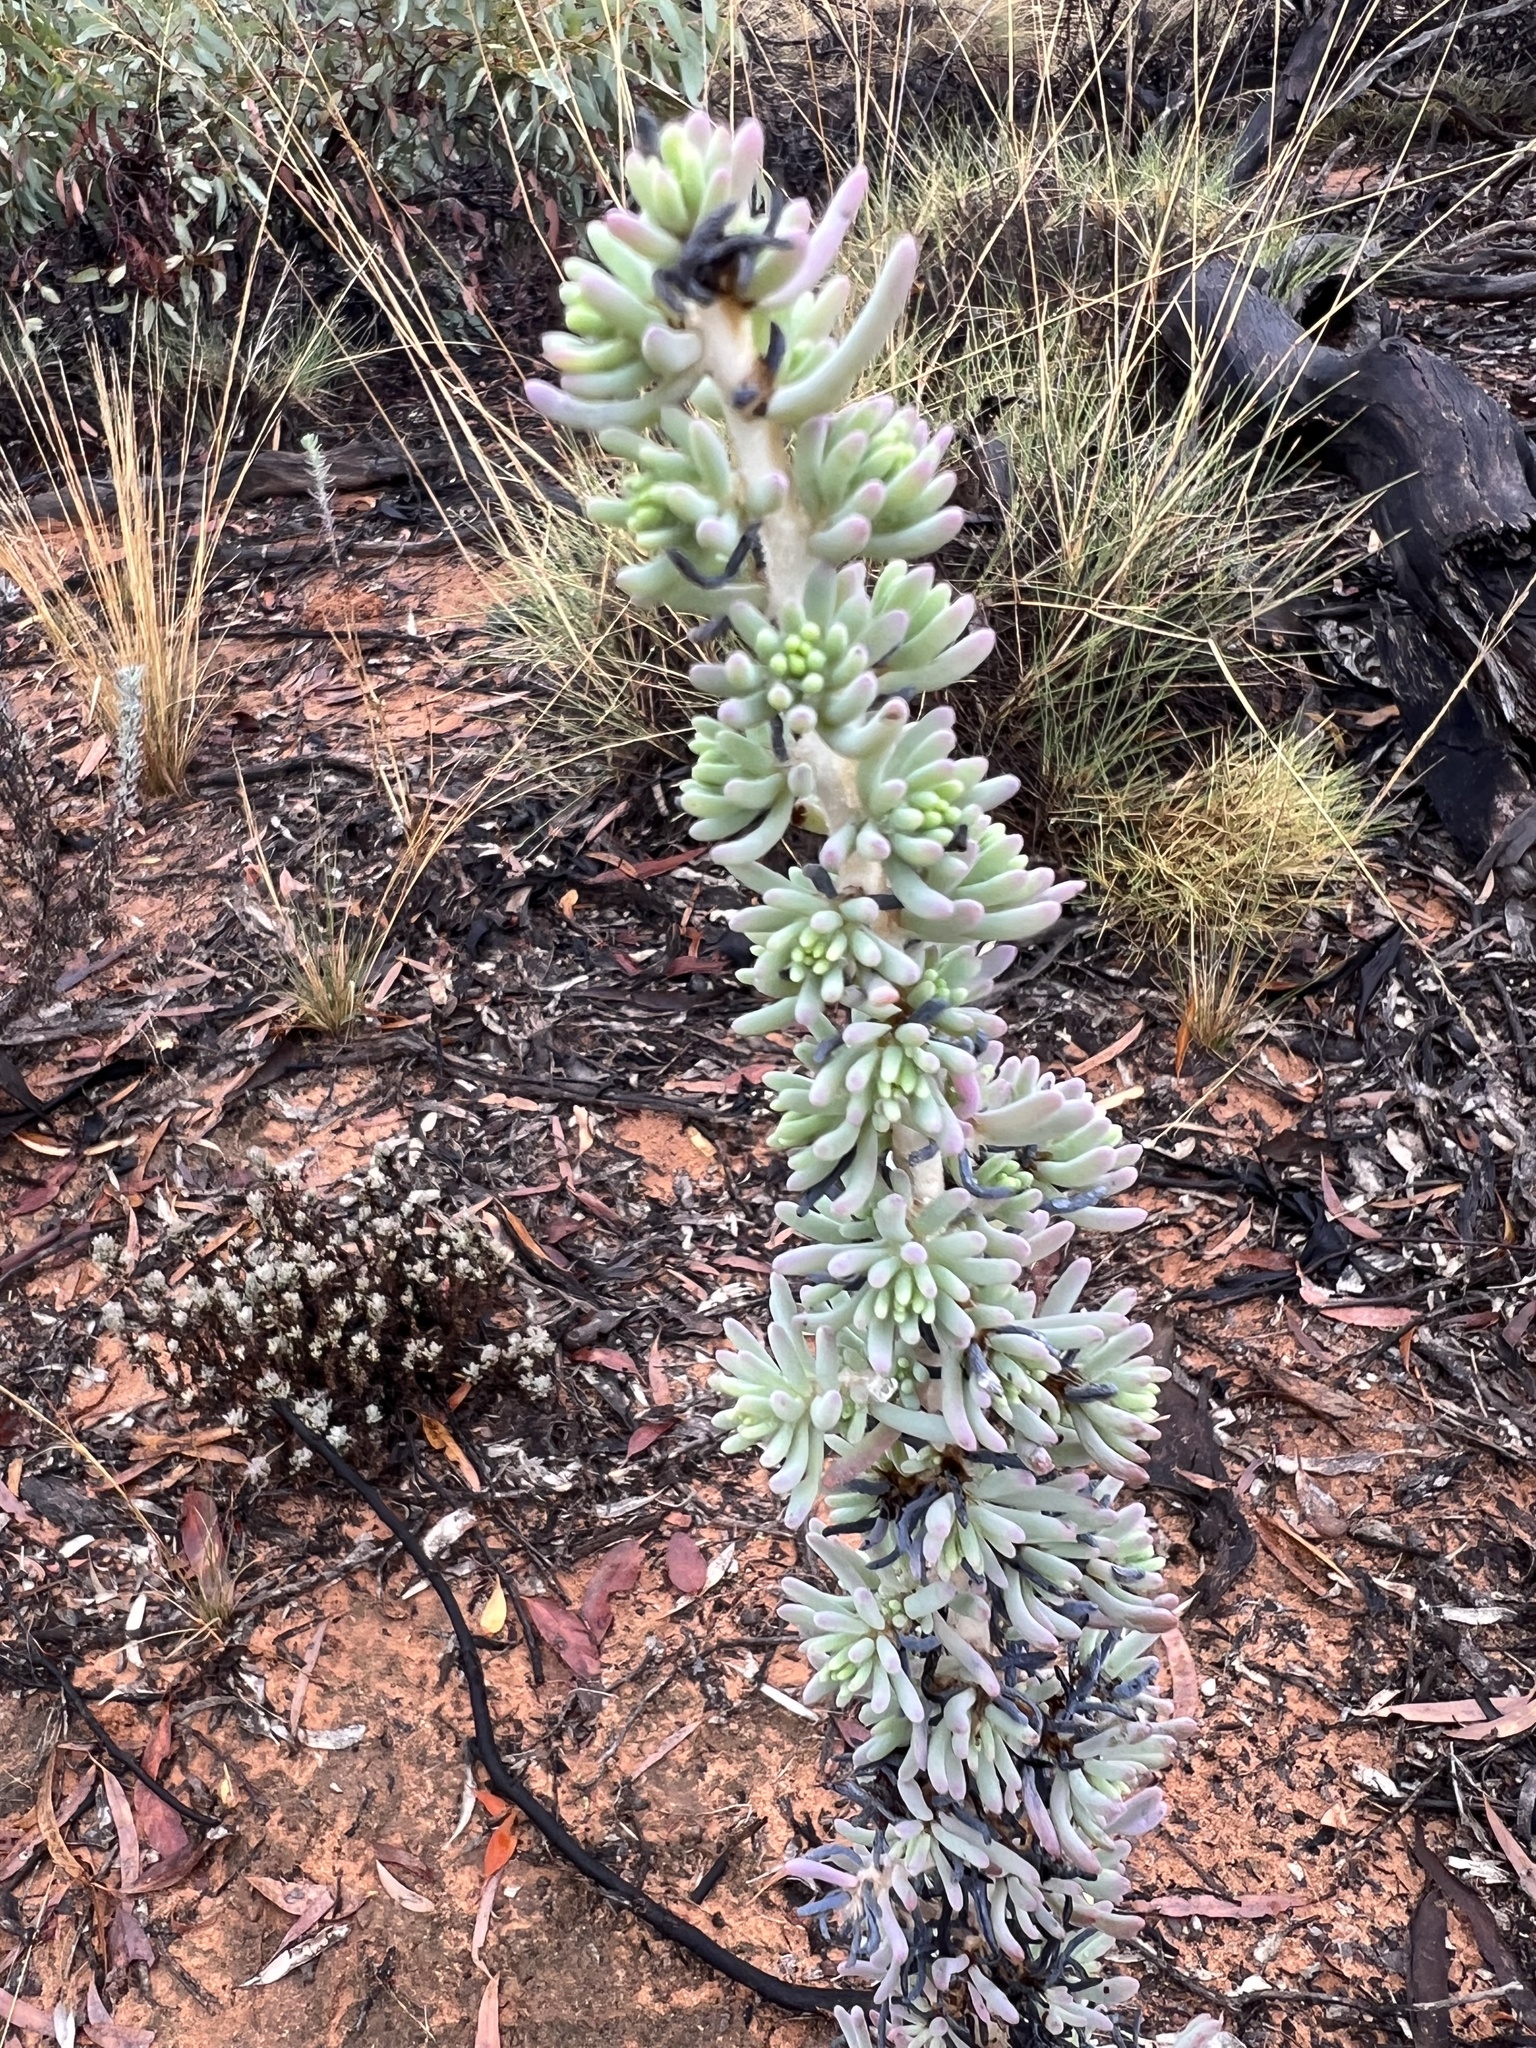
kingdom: Plantae
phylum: Tracheophyta
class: Magnoliopsida
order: Caryophyllales
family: Amaranthaceae
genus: Maireana
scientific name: Maireana pentatropis
